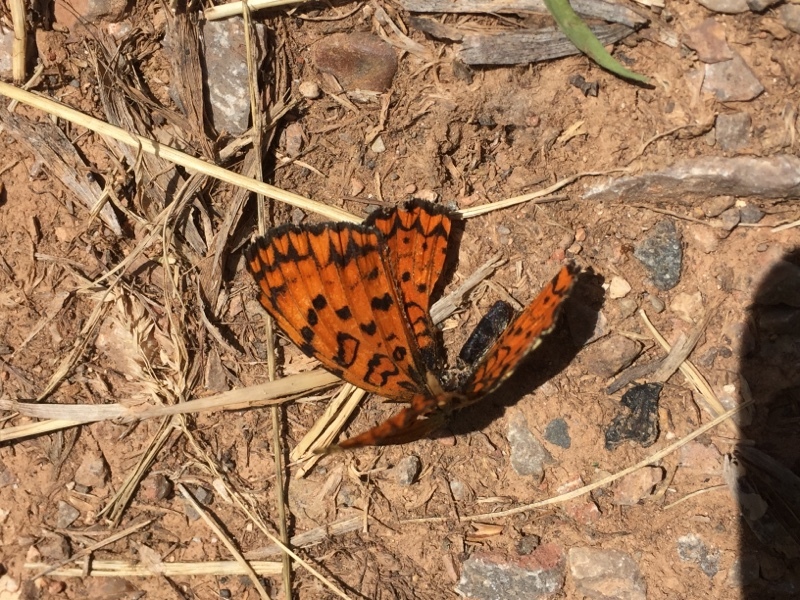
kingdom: Animalia
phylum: Arthropoda
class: Insecta
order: Lepidoptera
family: Nymphalidae
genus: Melitaea
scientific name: Melitaea arduinna
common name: Freyer's fritillary
